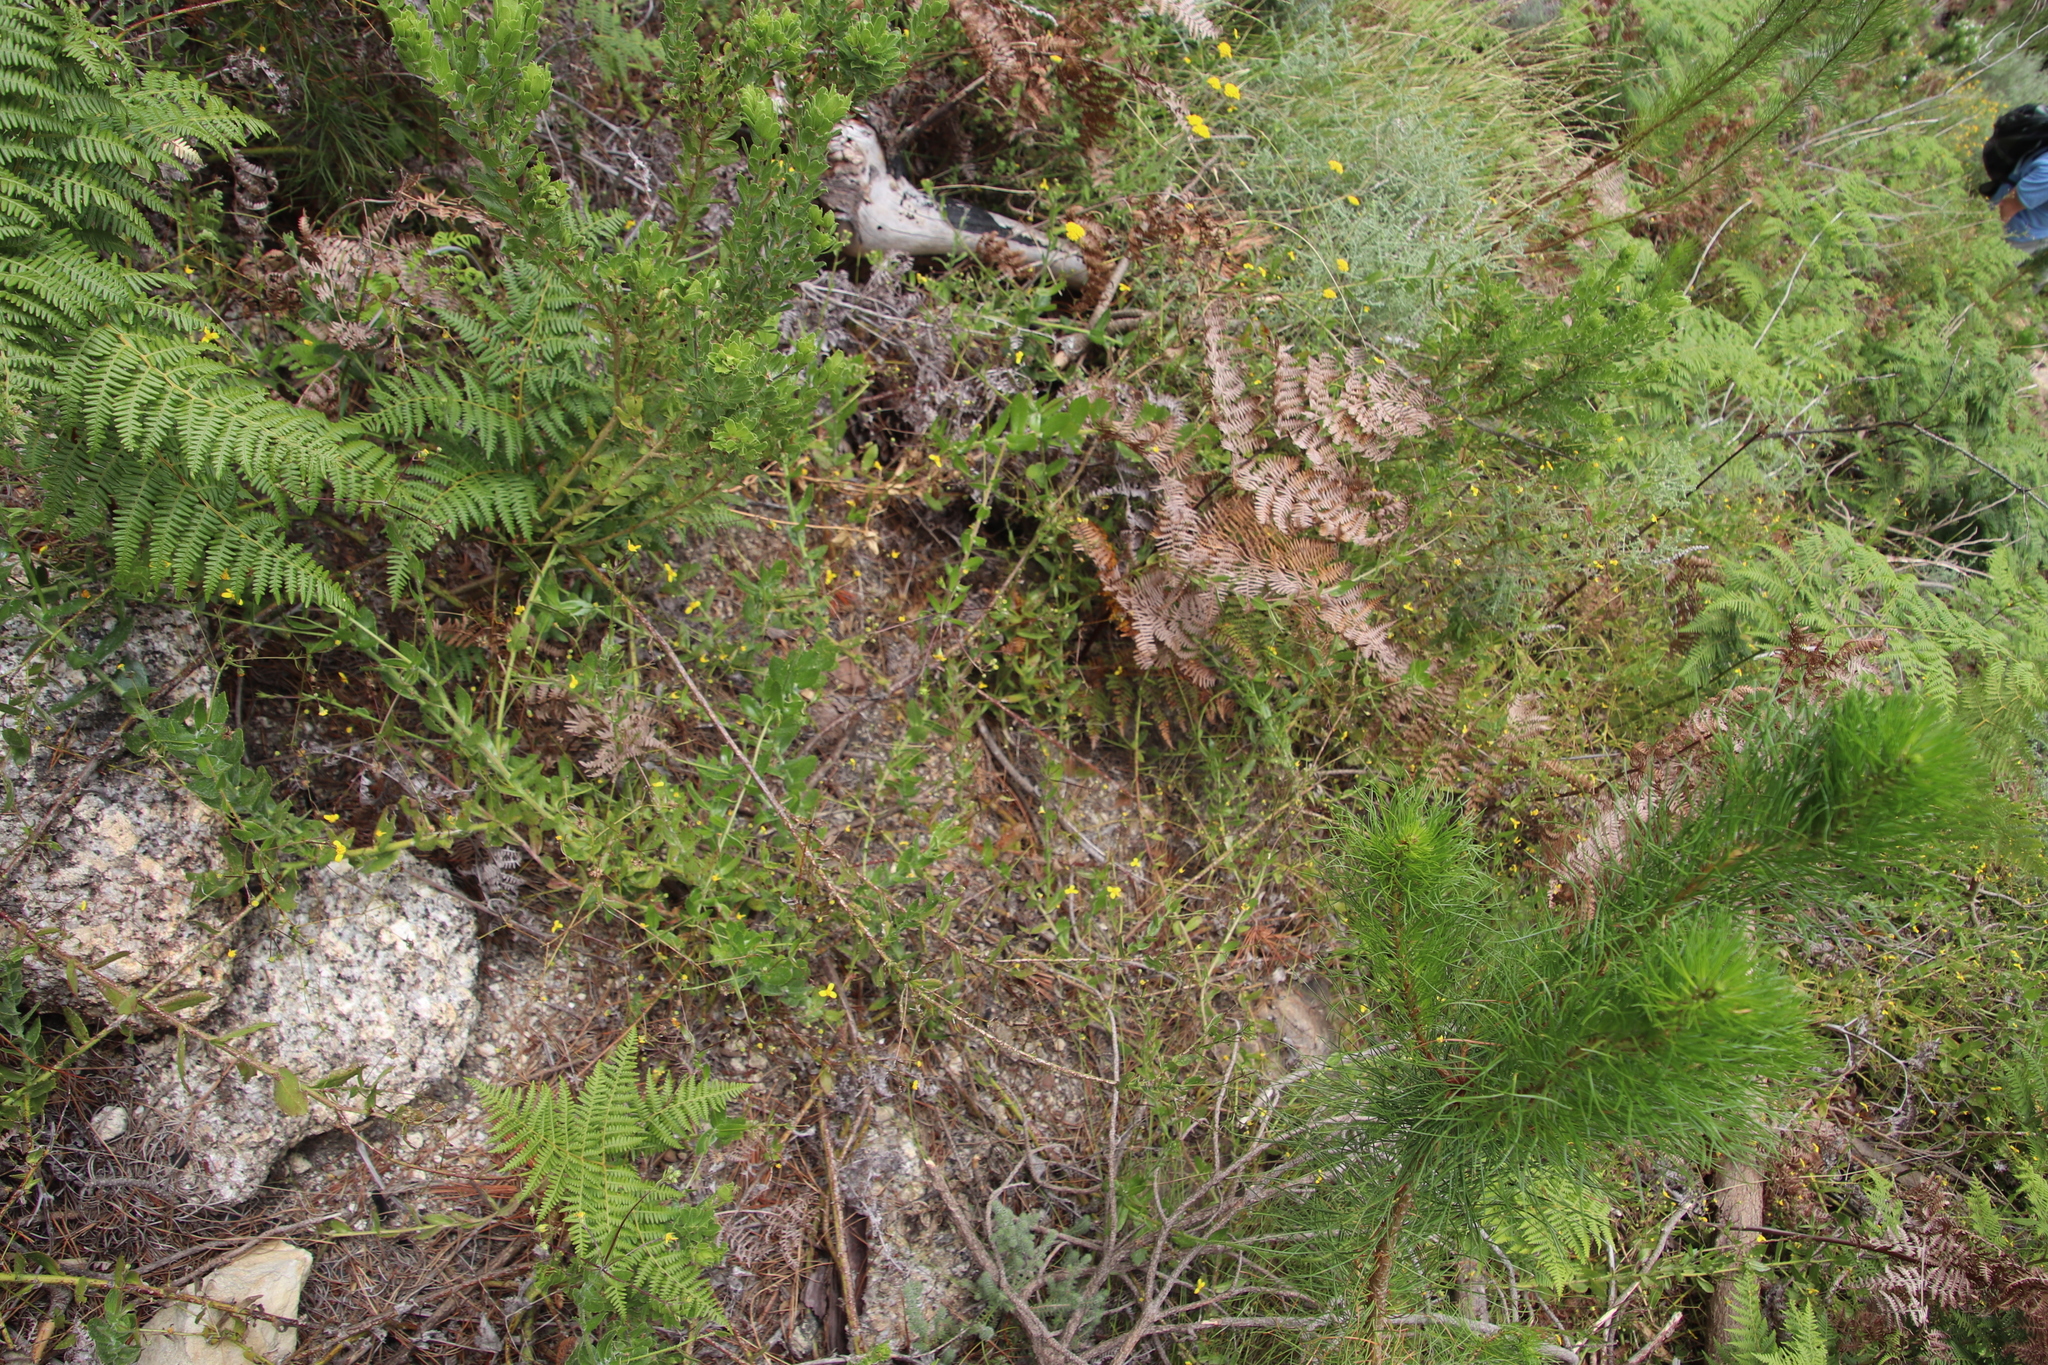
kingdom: Plantae
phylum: Tracheophyta
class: Magnoliopsida
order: Asterales
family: Asteraceae
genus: Osteospermum
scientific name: Osteospermum ciliatum
